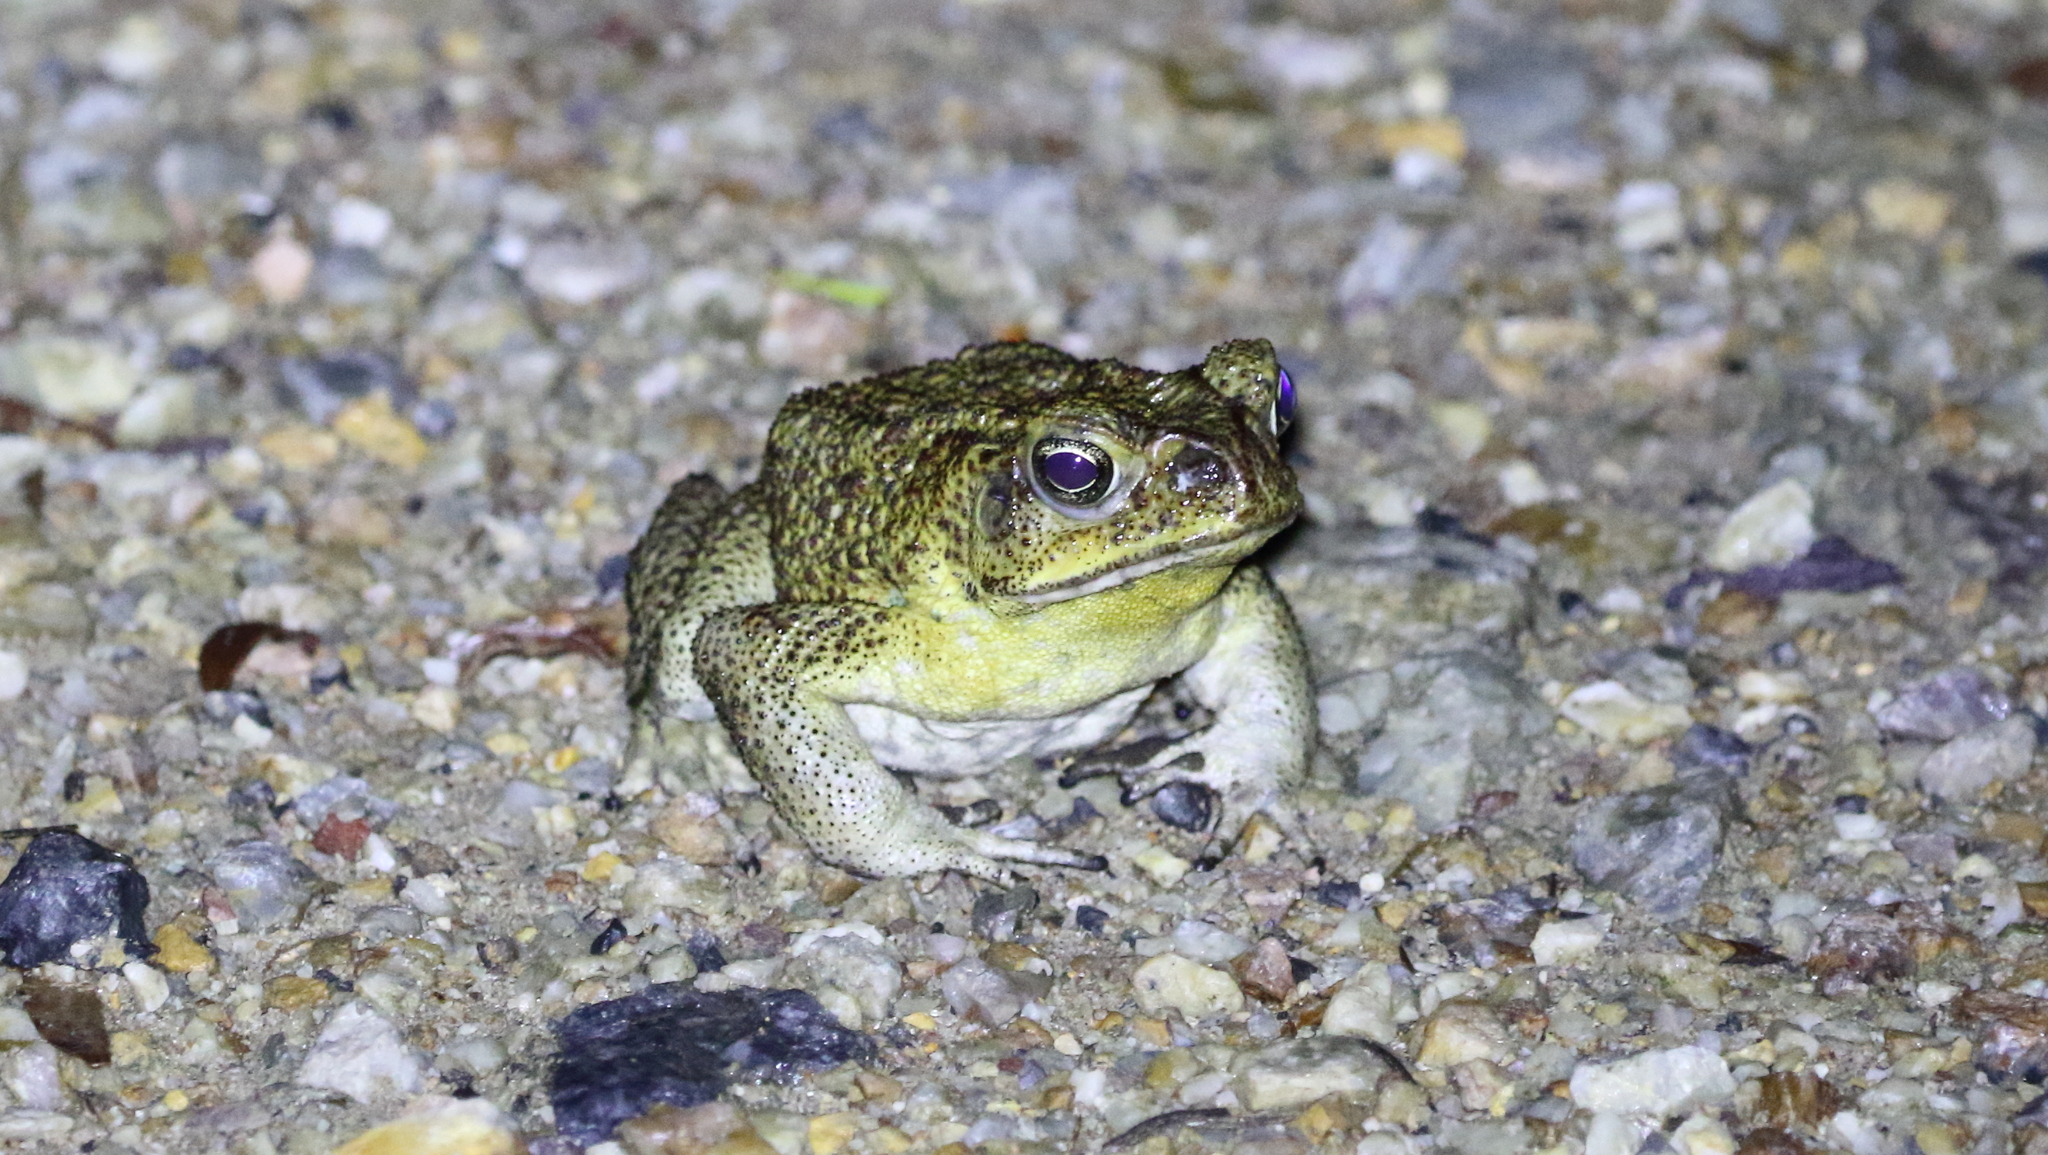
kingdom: Animalia
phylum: Chordata
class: Amphibia
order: Anura
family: Bufonidae
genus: Rhinella
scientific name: Rhinella marina
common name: Cane toad
